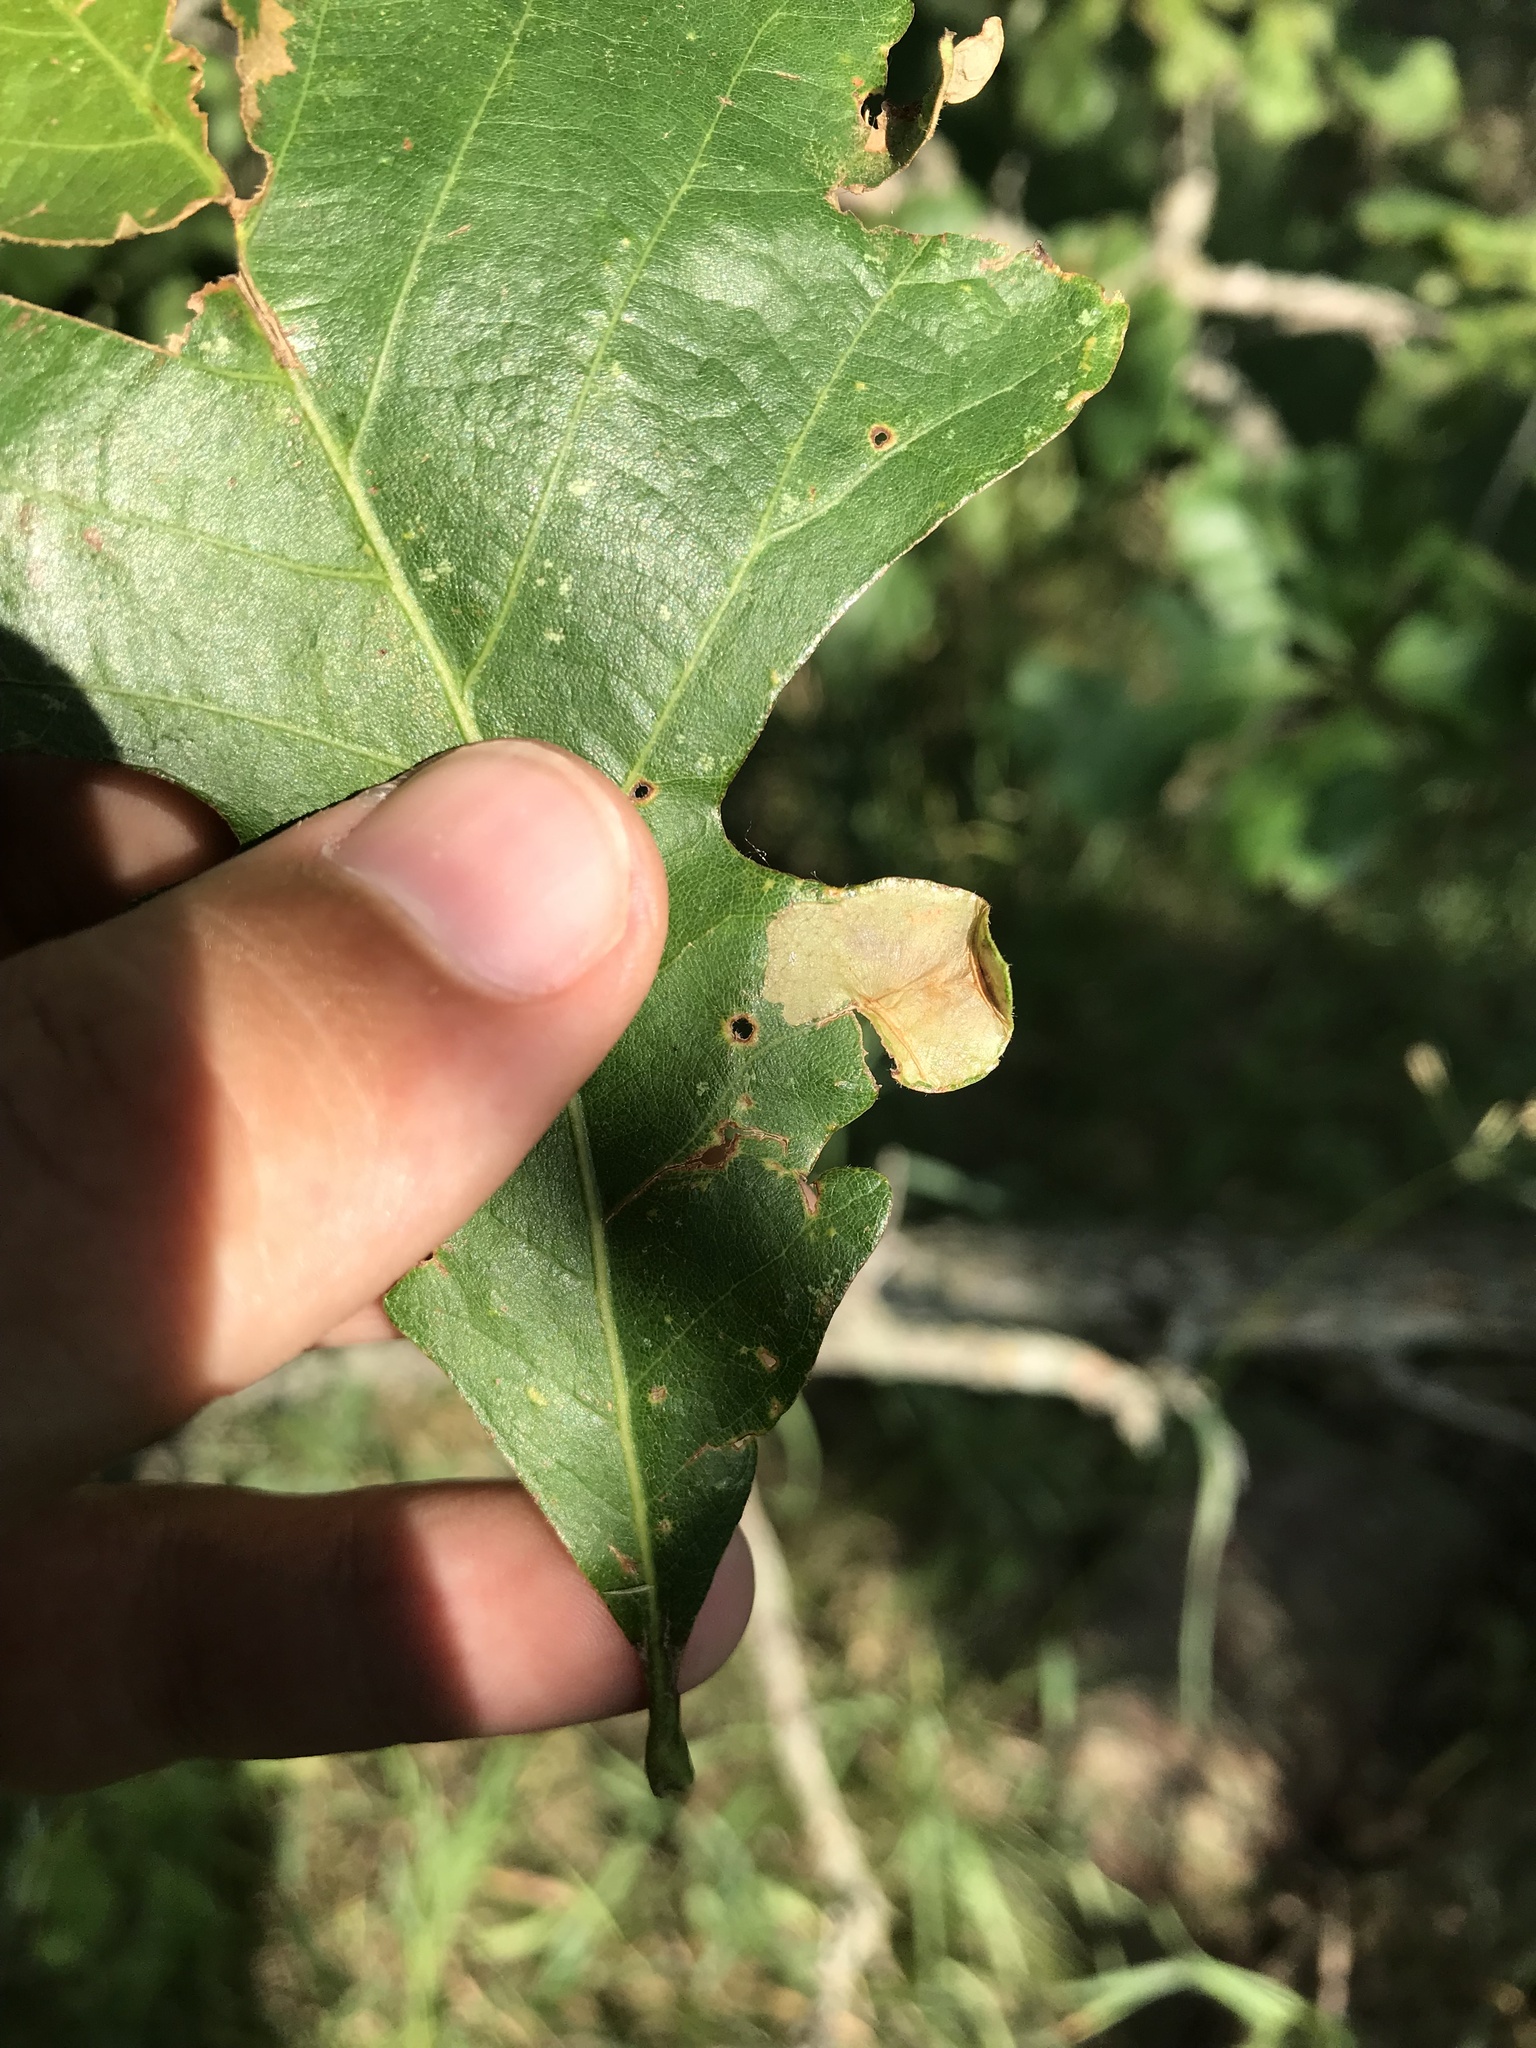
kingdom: Animalia
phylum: Arthropoda
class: Insecta
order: Lepidoptera
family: Gracillariidae
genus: Cameraria
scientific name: Cameraria macrocarpella
